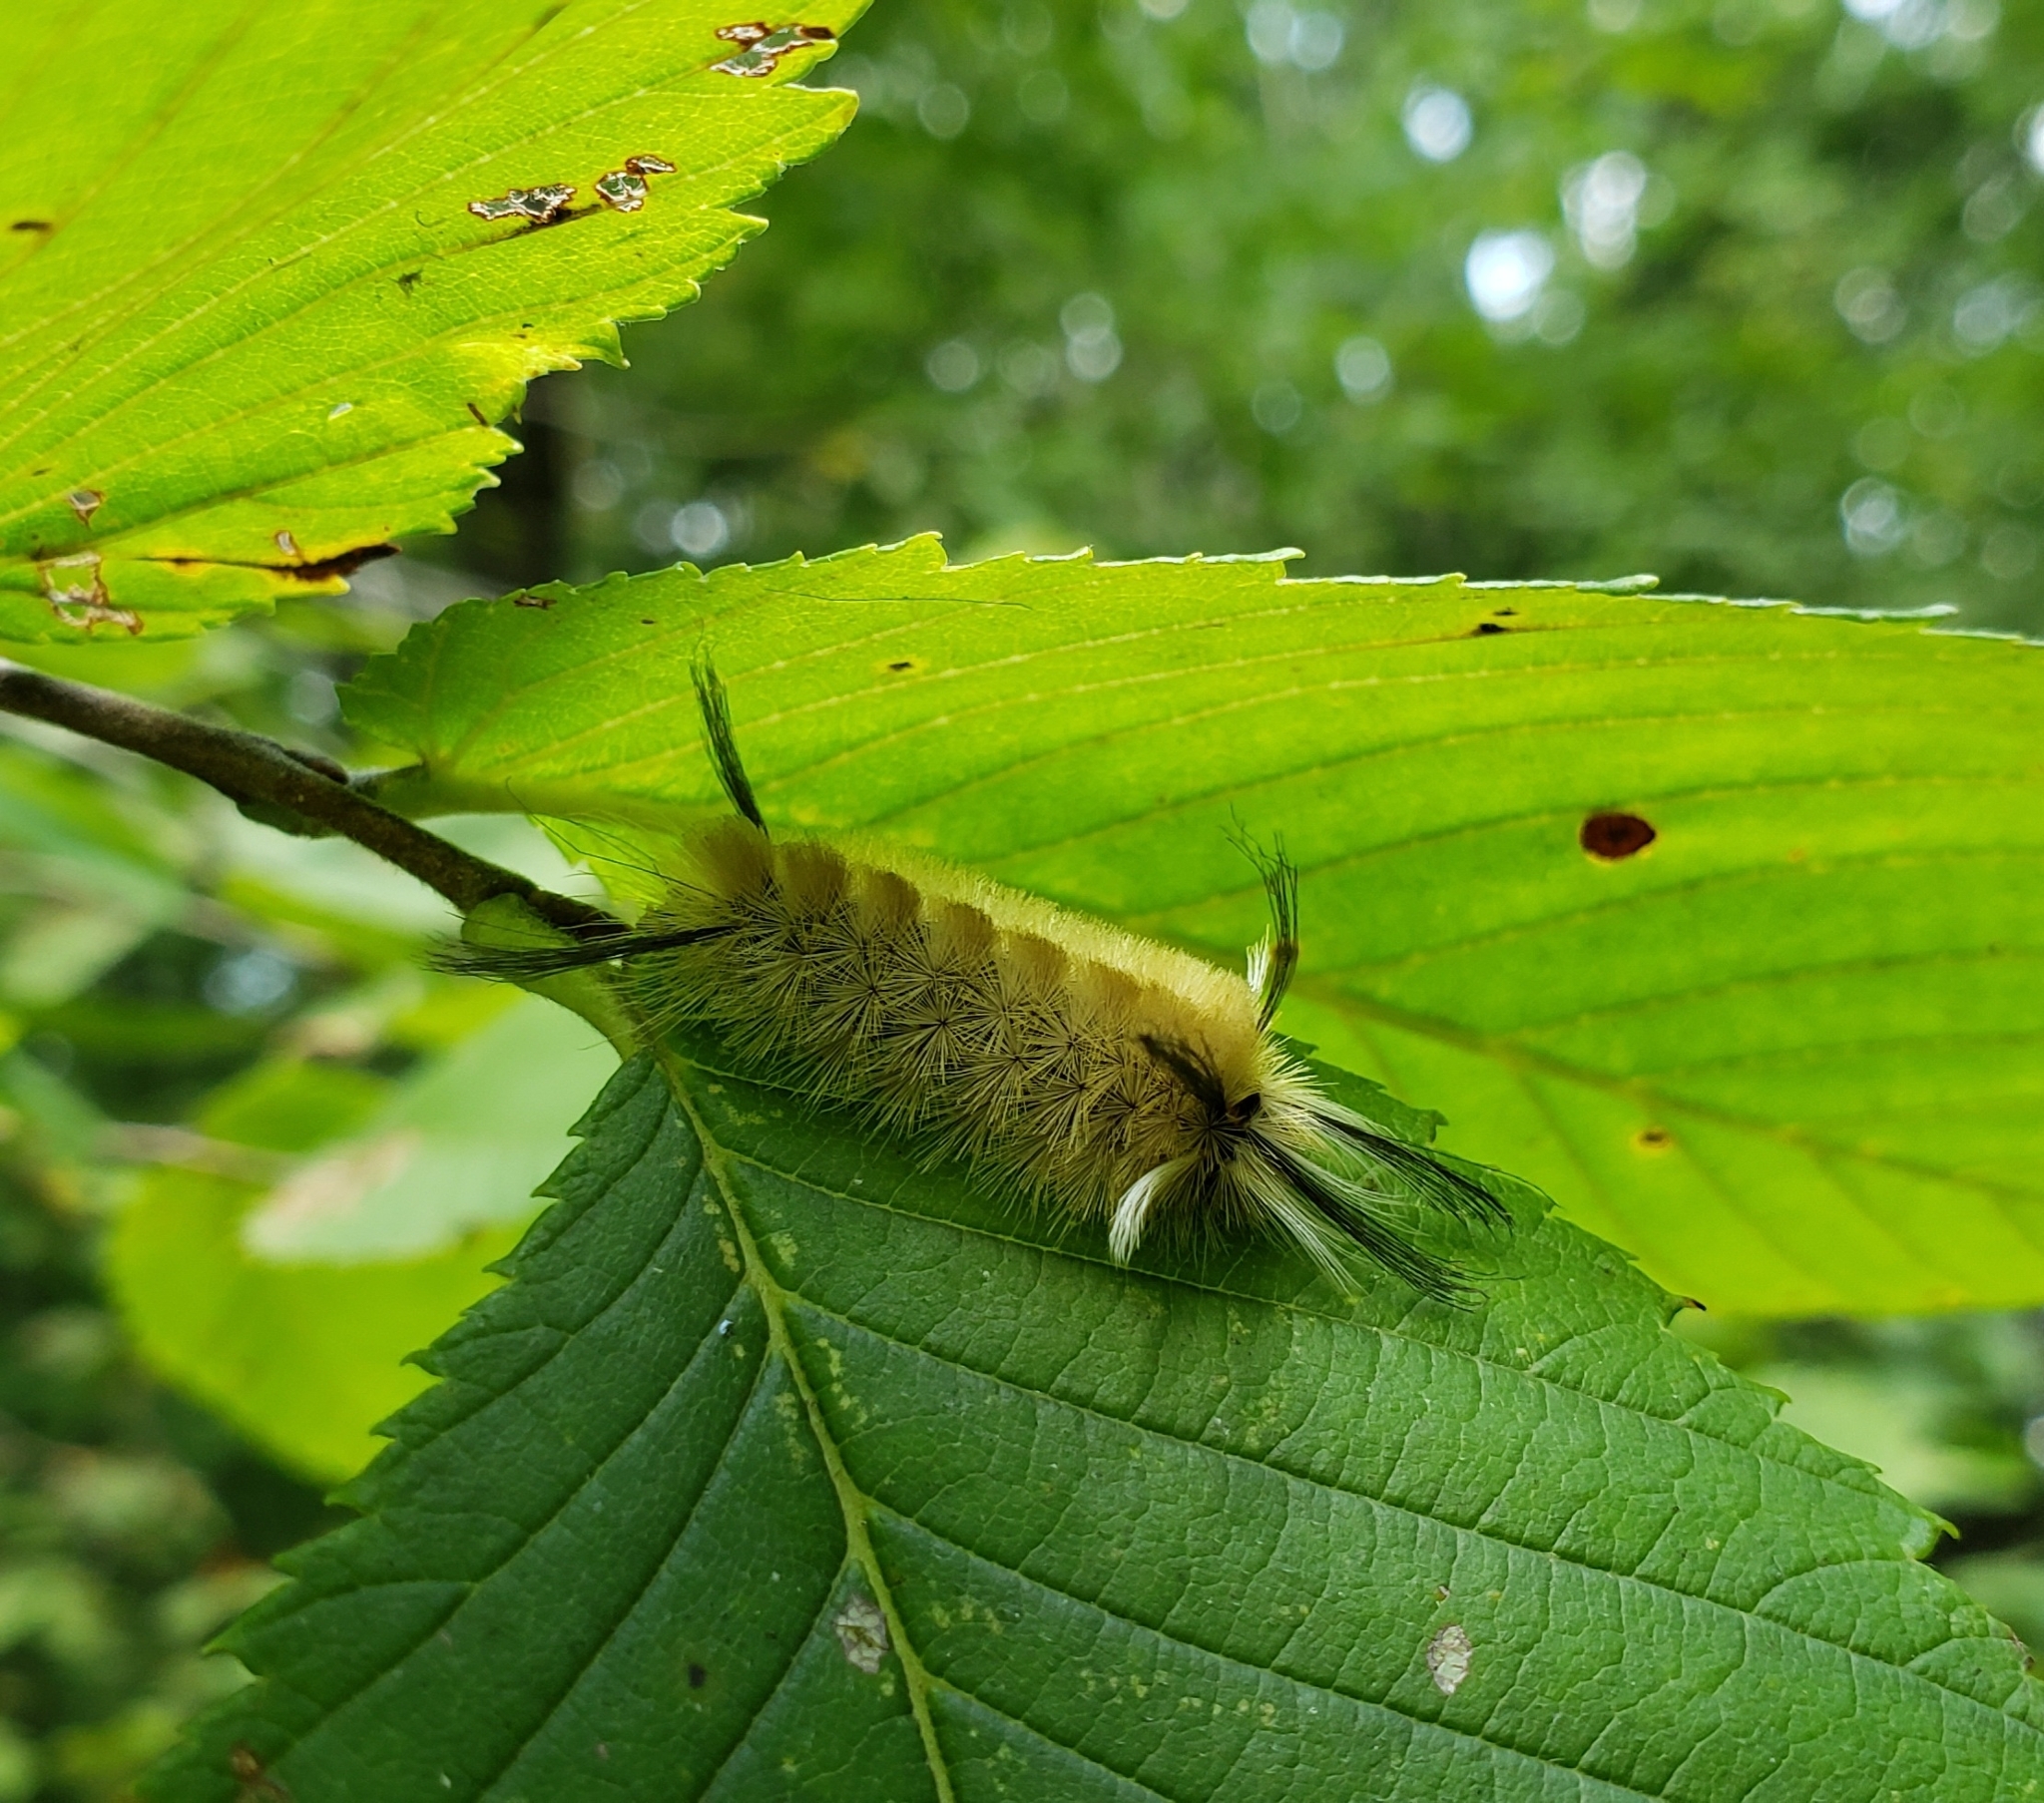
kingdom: Animalia
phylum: Arthropoda
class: Insecta
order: Lepidoptera
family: Erebidae
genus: Halysidota
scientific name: Halysidota tessellaris
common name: Banded tussock moth
